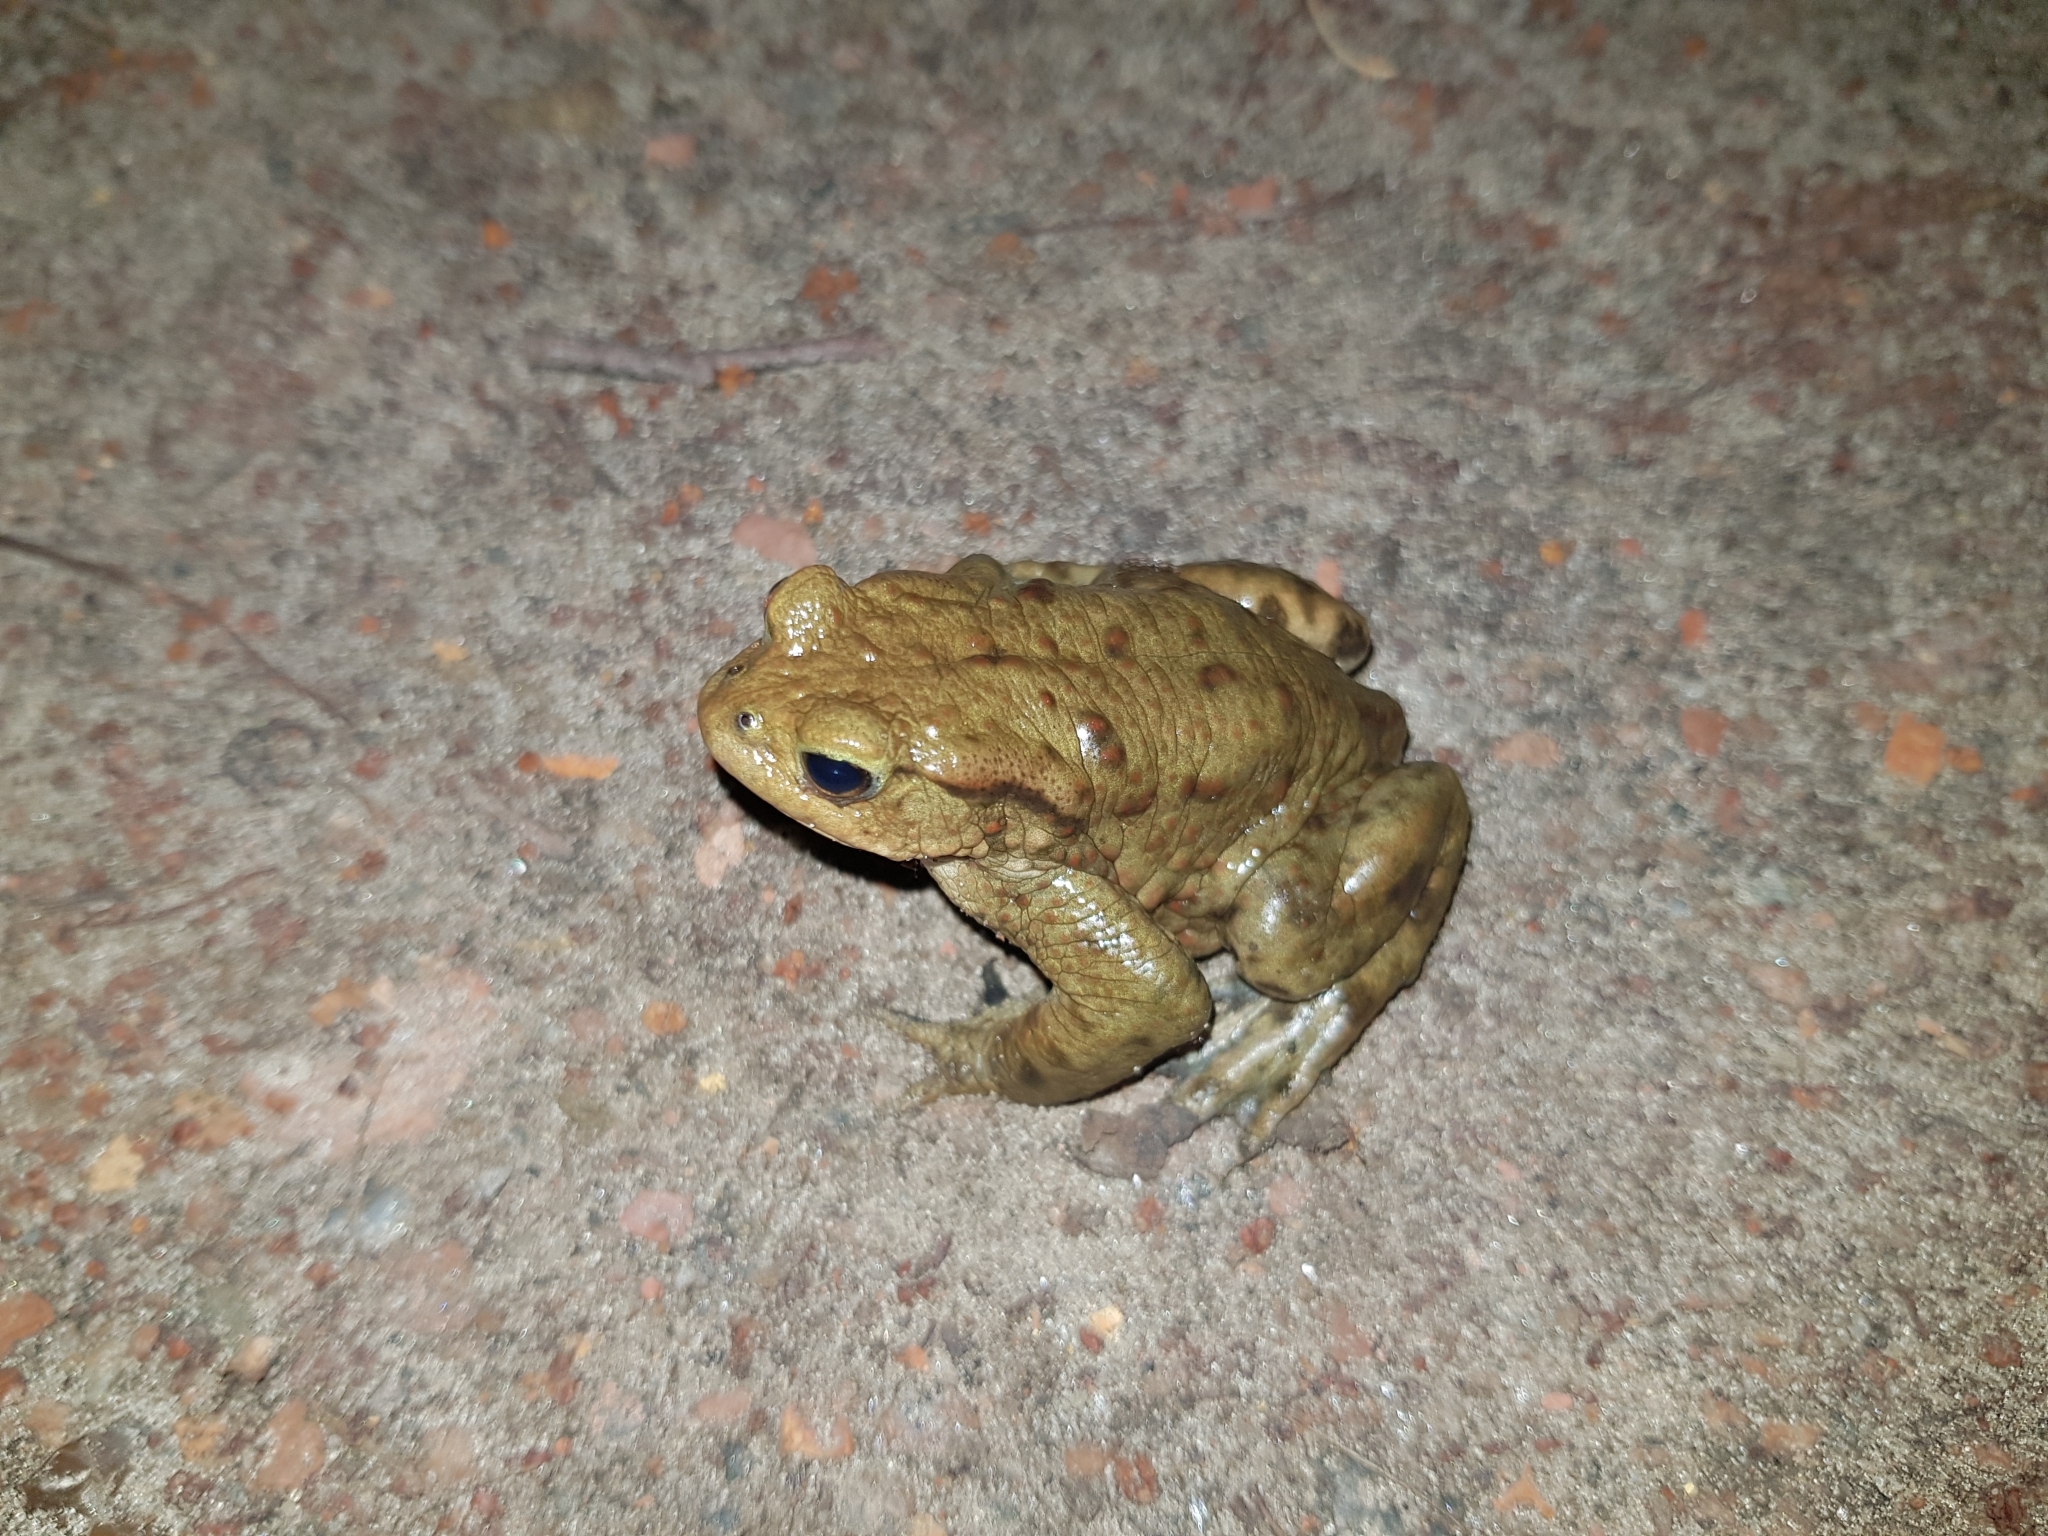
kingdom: Animalia
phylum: Chordata
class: Amphibia
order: Anura
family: Bufonidae
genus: Bufo
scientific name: Bufo bufo
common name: Common toad
